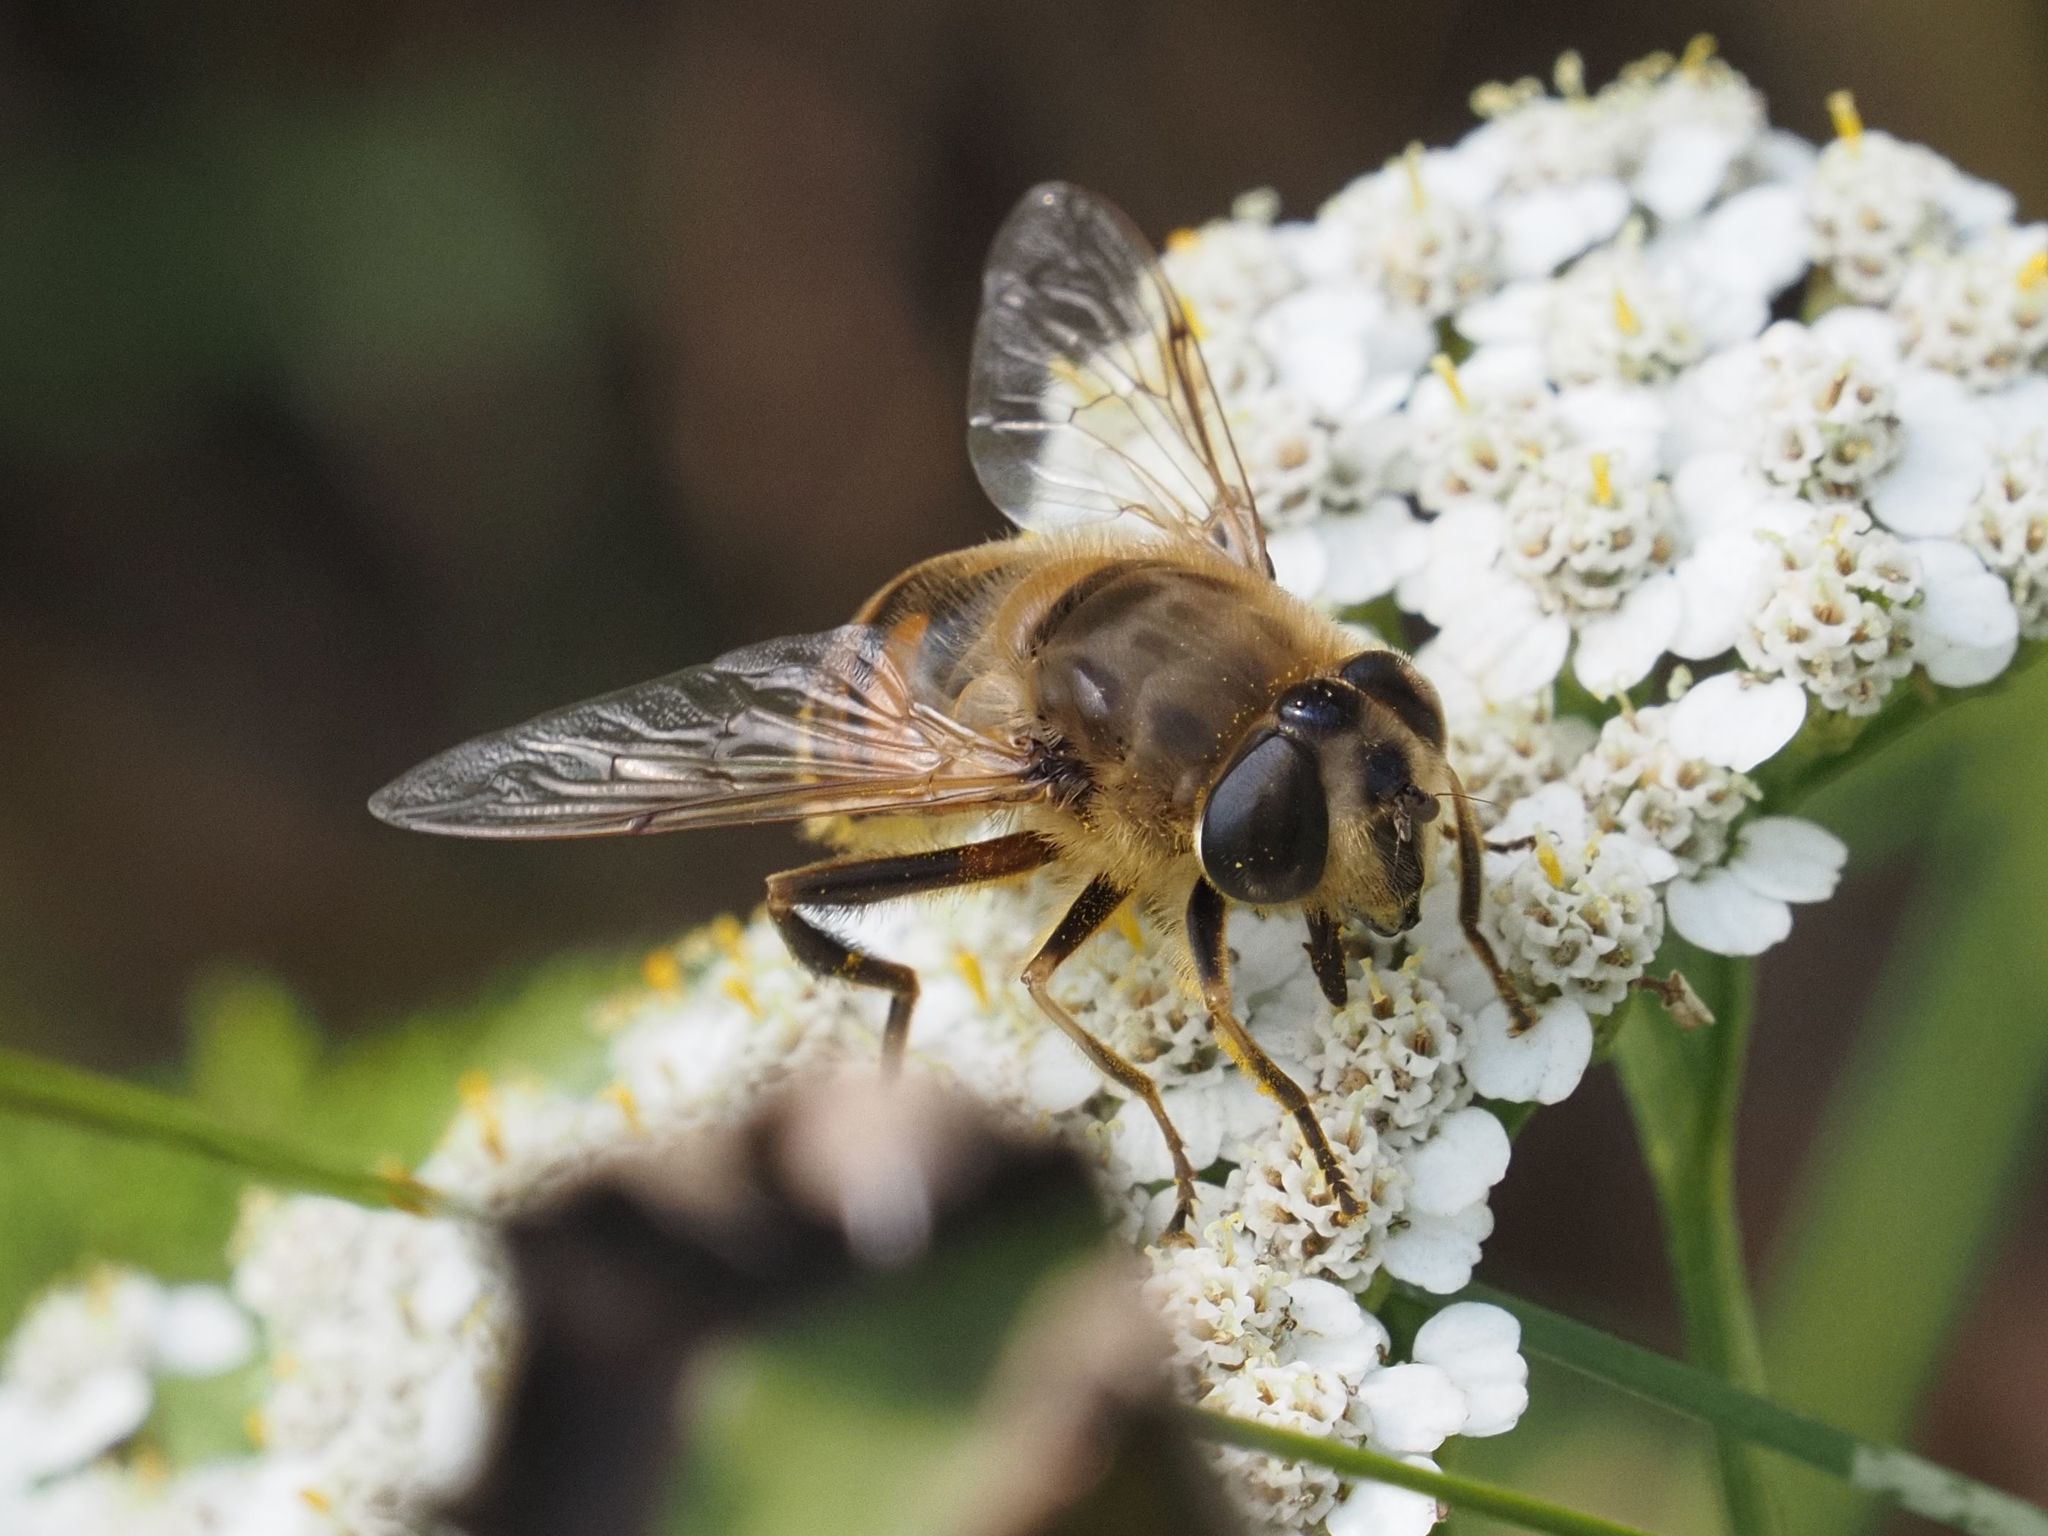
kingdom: Animalia
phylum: Arthropoda
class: Insecta
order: Diptera
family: Syrphidae
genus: Eristalis
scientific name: Eristalis tenax
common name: Drone fly
